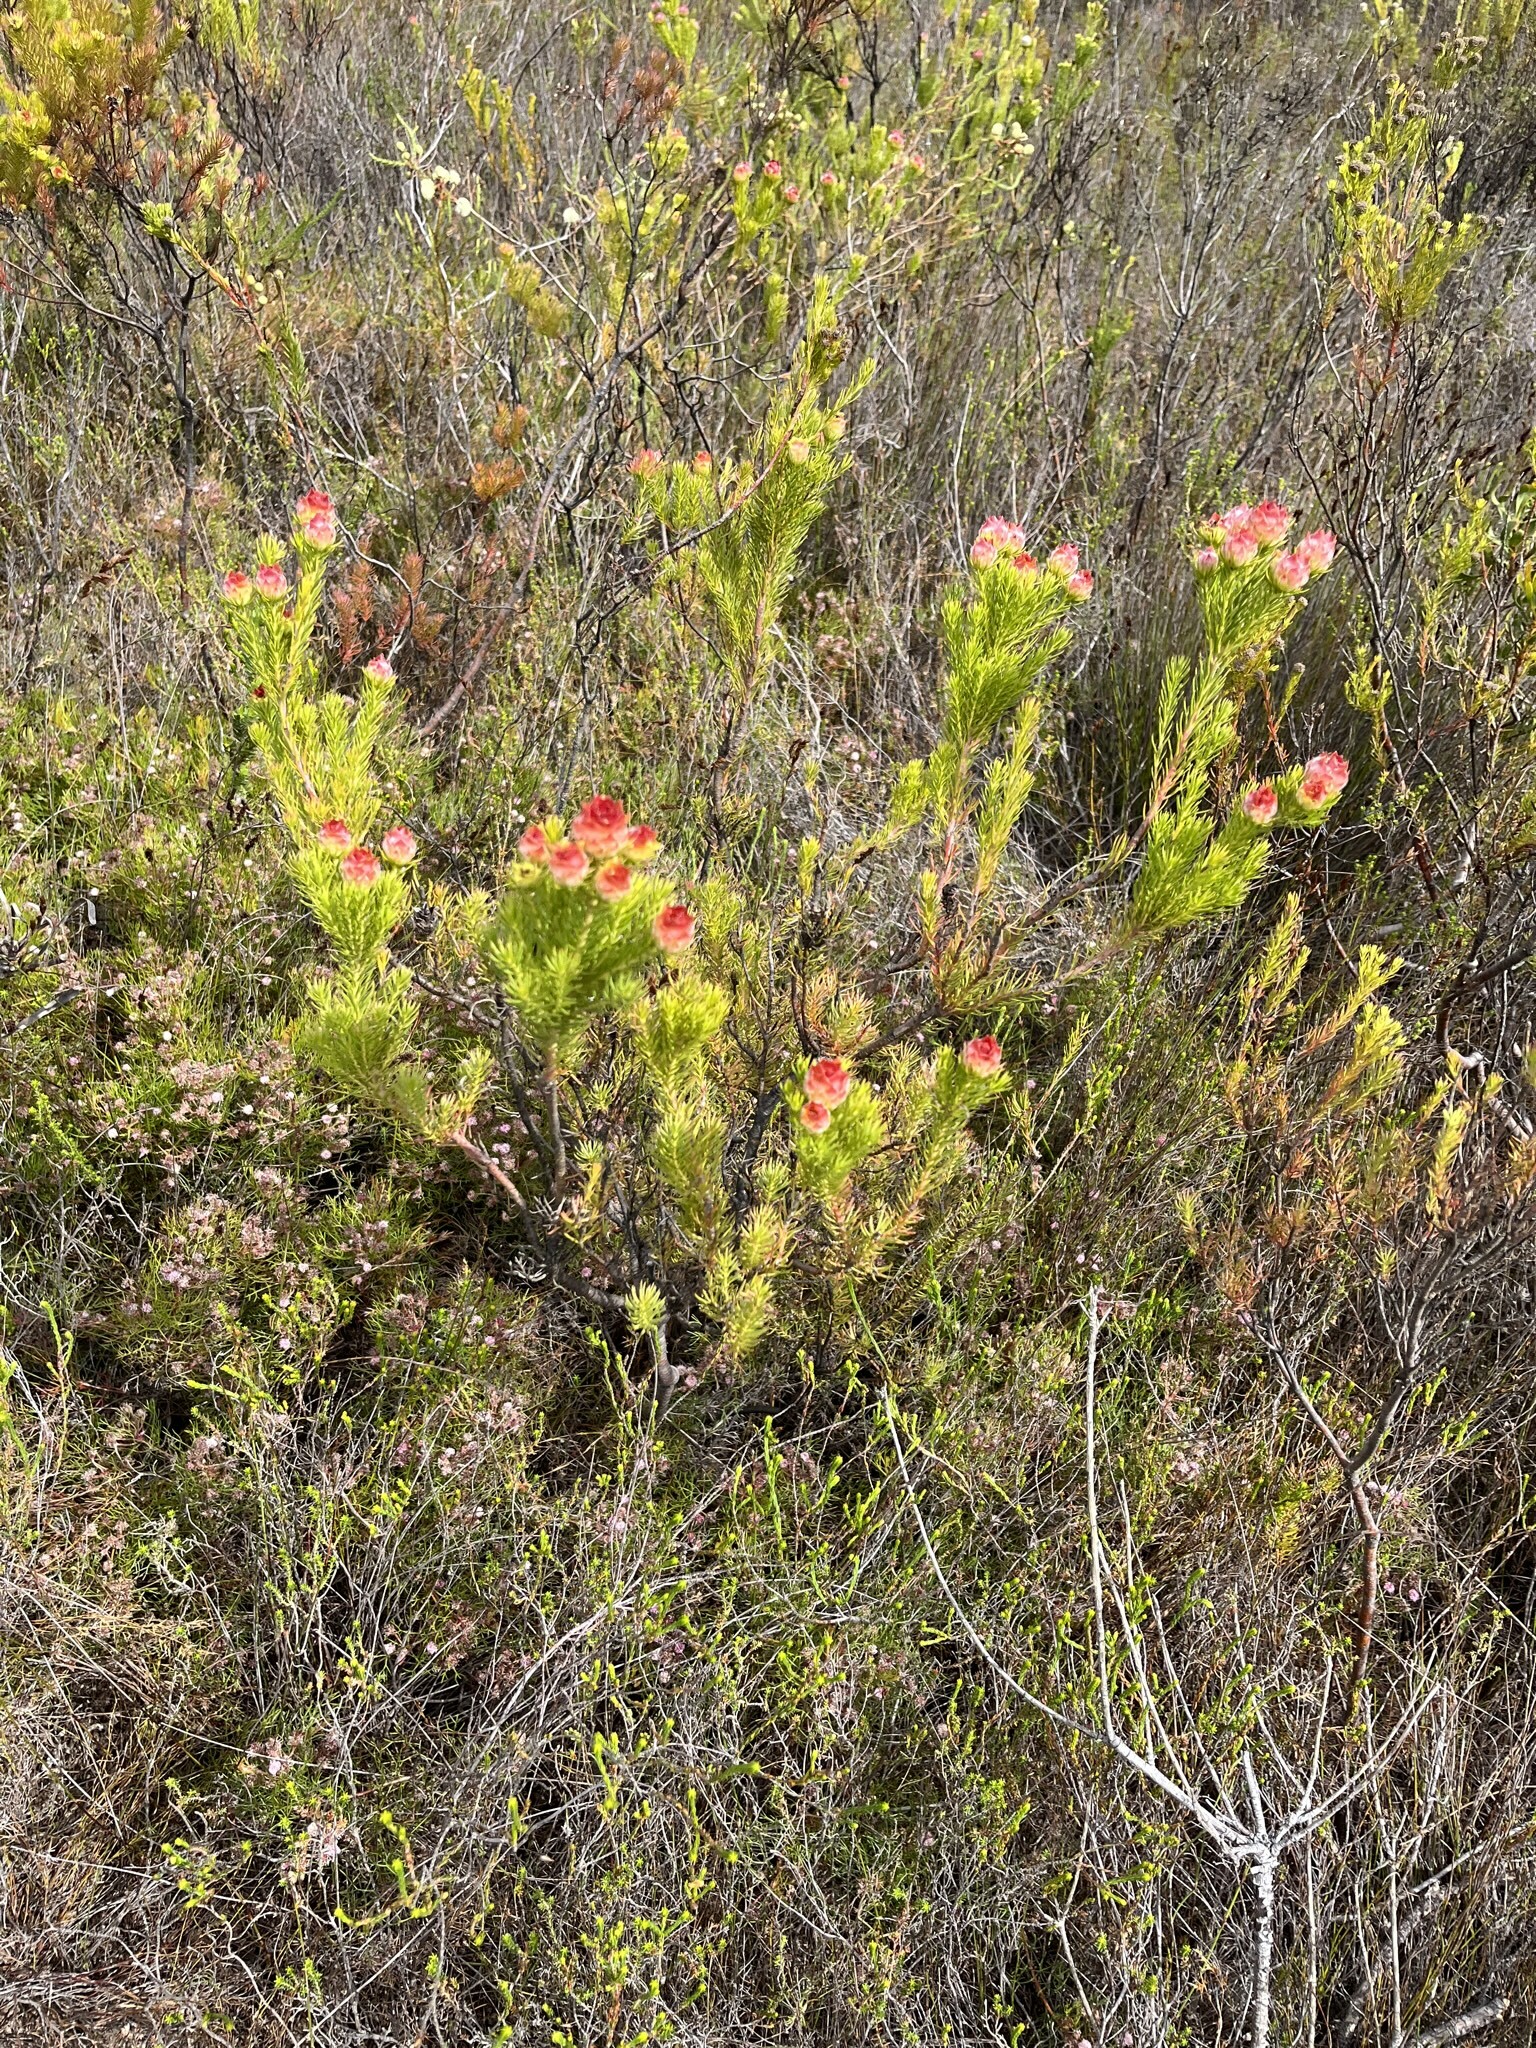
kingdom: Plantae
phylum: Tracheophyta
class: Magnoliopsida
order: Proteales
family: Proteaceae
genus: Leucadendron
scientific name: Leucadendron laxum
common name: Bredasdorp conebush
